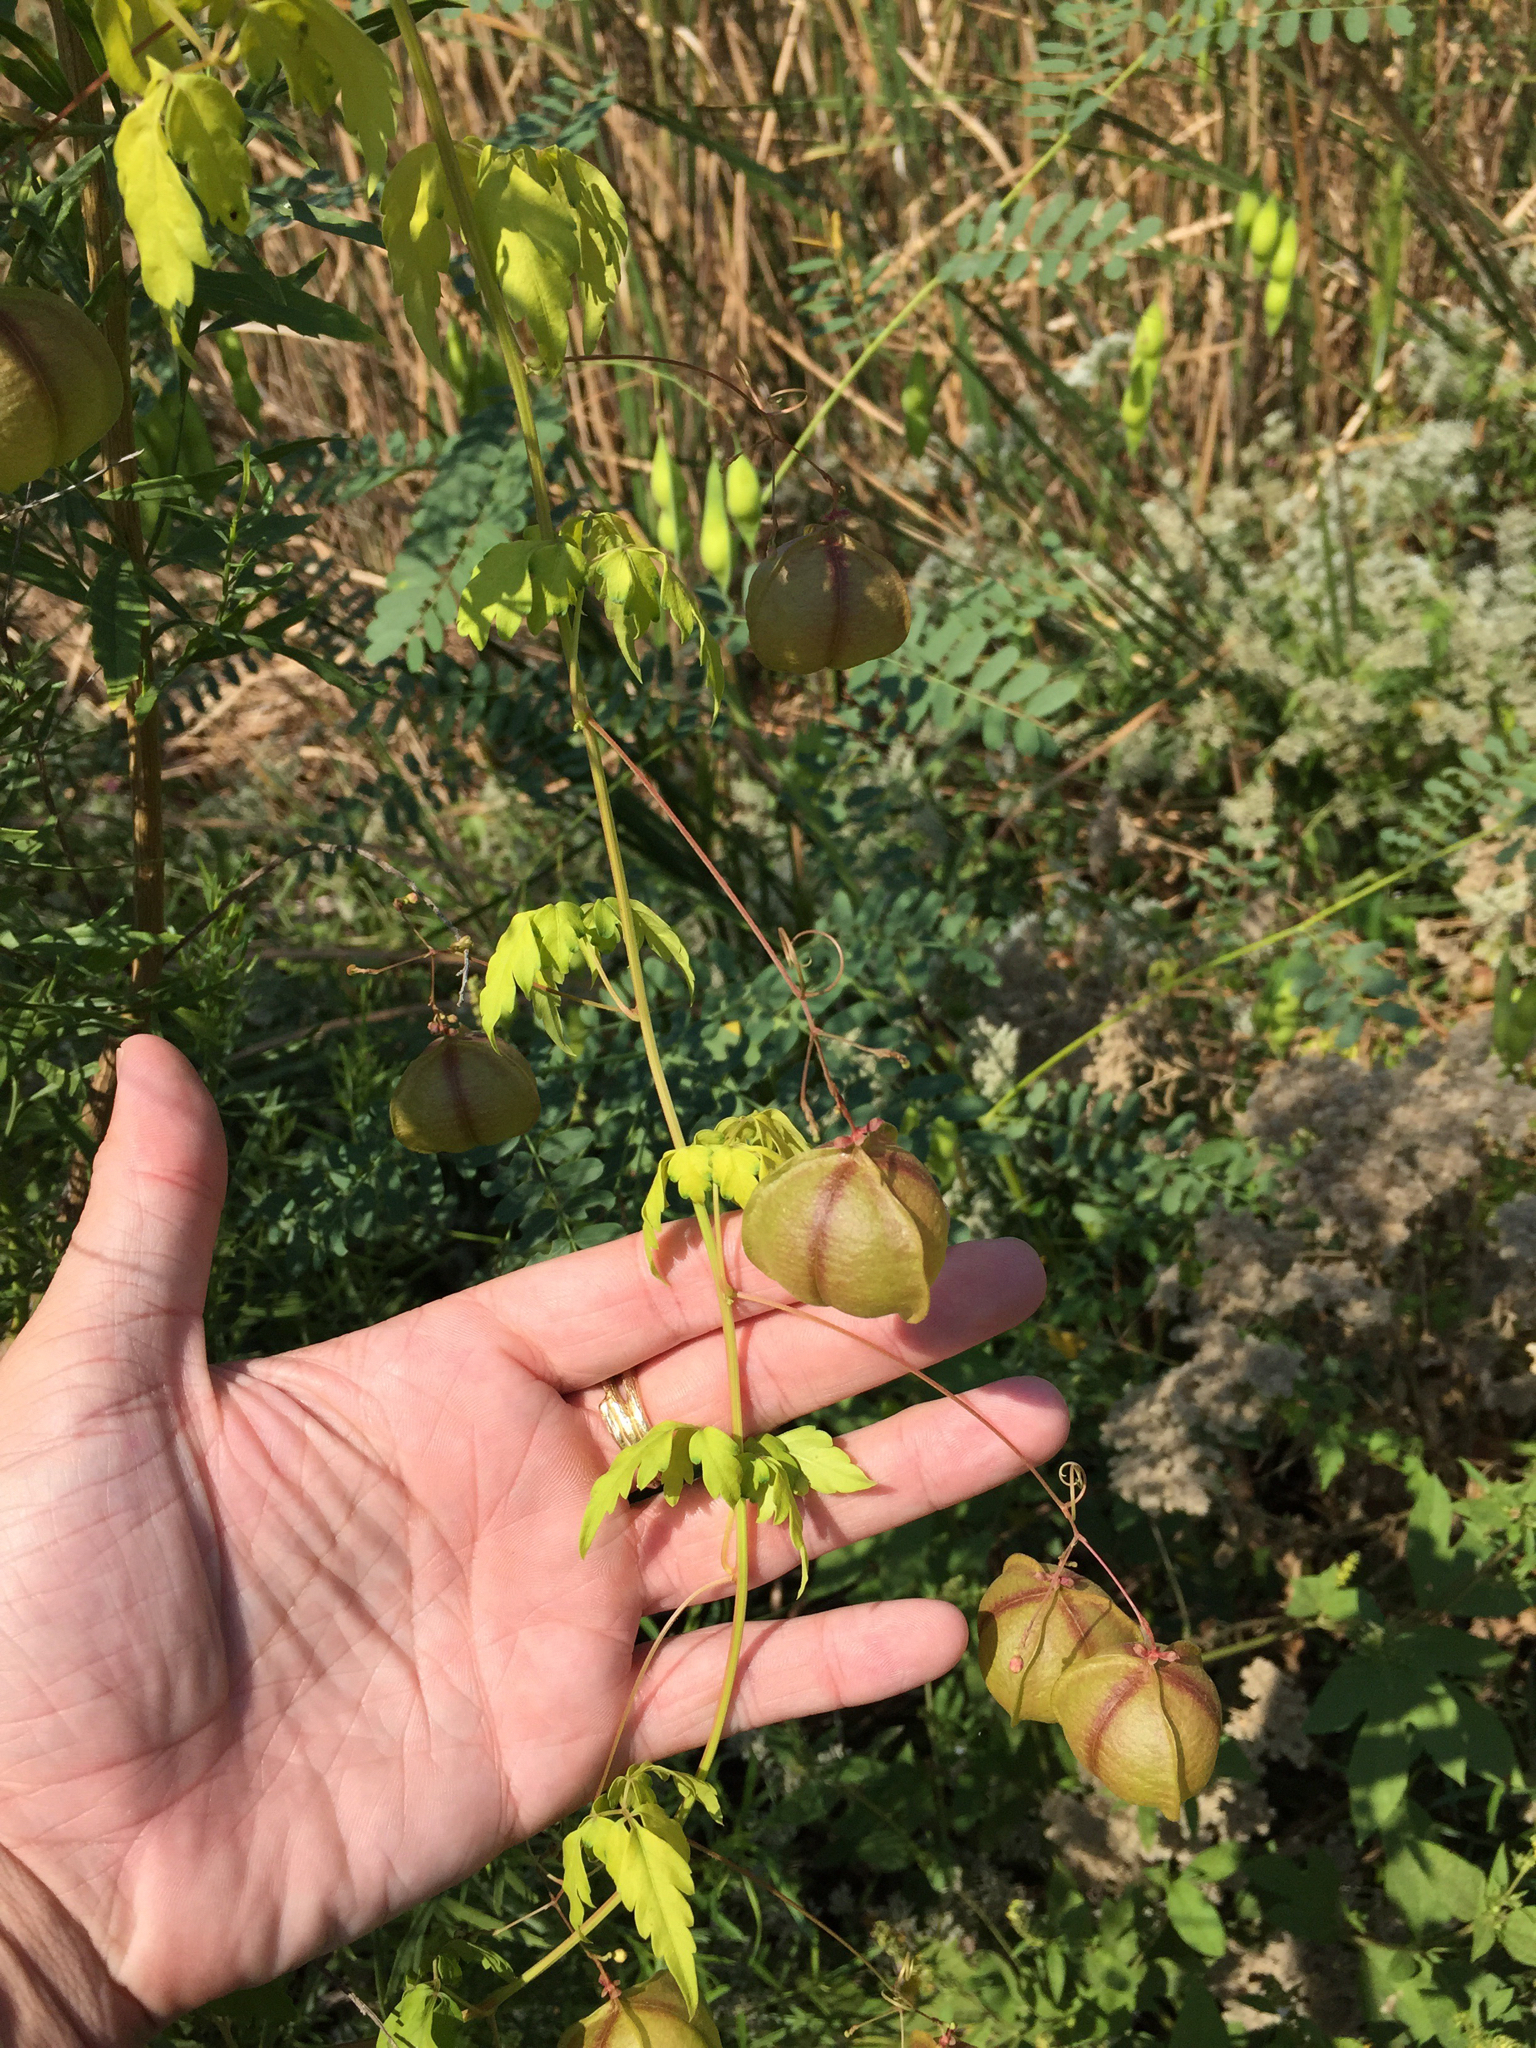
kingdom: Plantae
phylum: Tracheophyta
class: Magnoliopsida
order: Sapindales
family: Sapindaceae
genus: Cardiospermum
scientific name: Cardiospermum halicacabum
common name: Balloon vine
